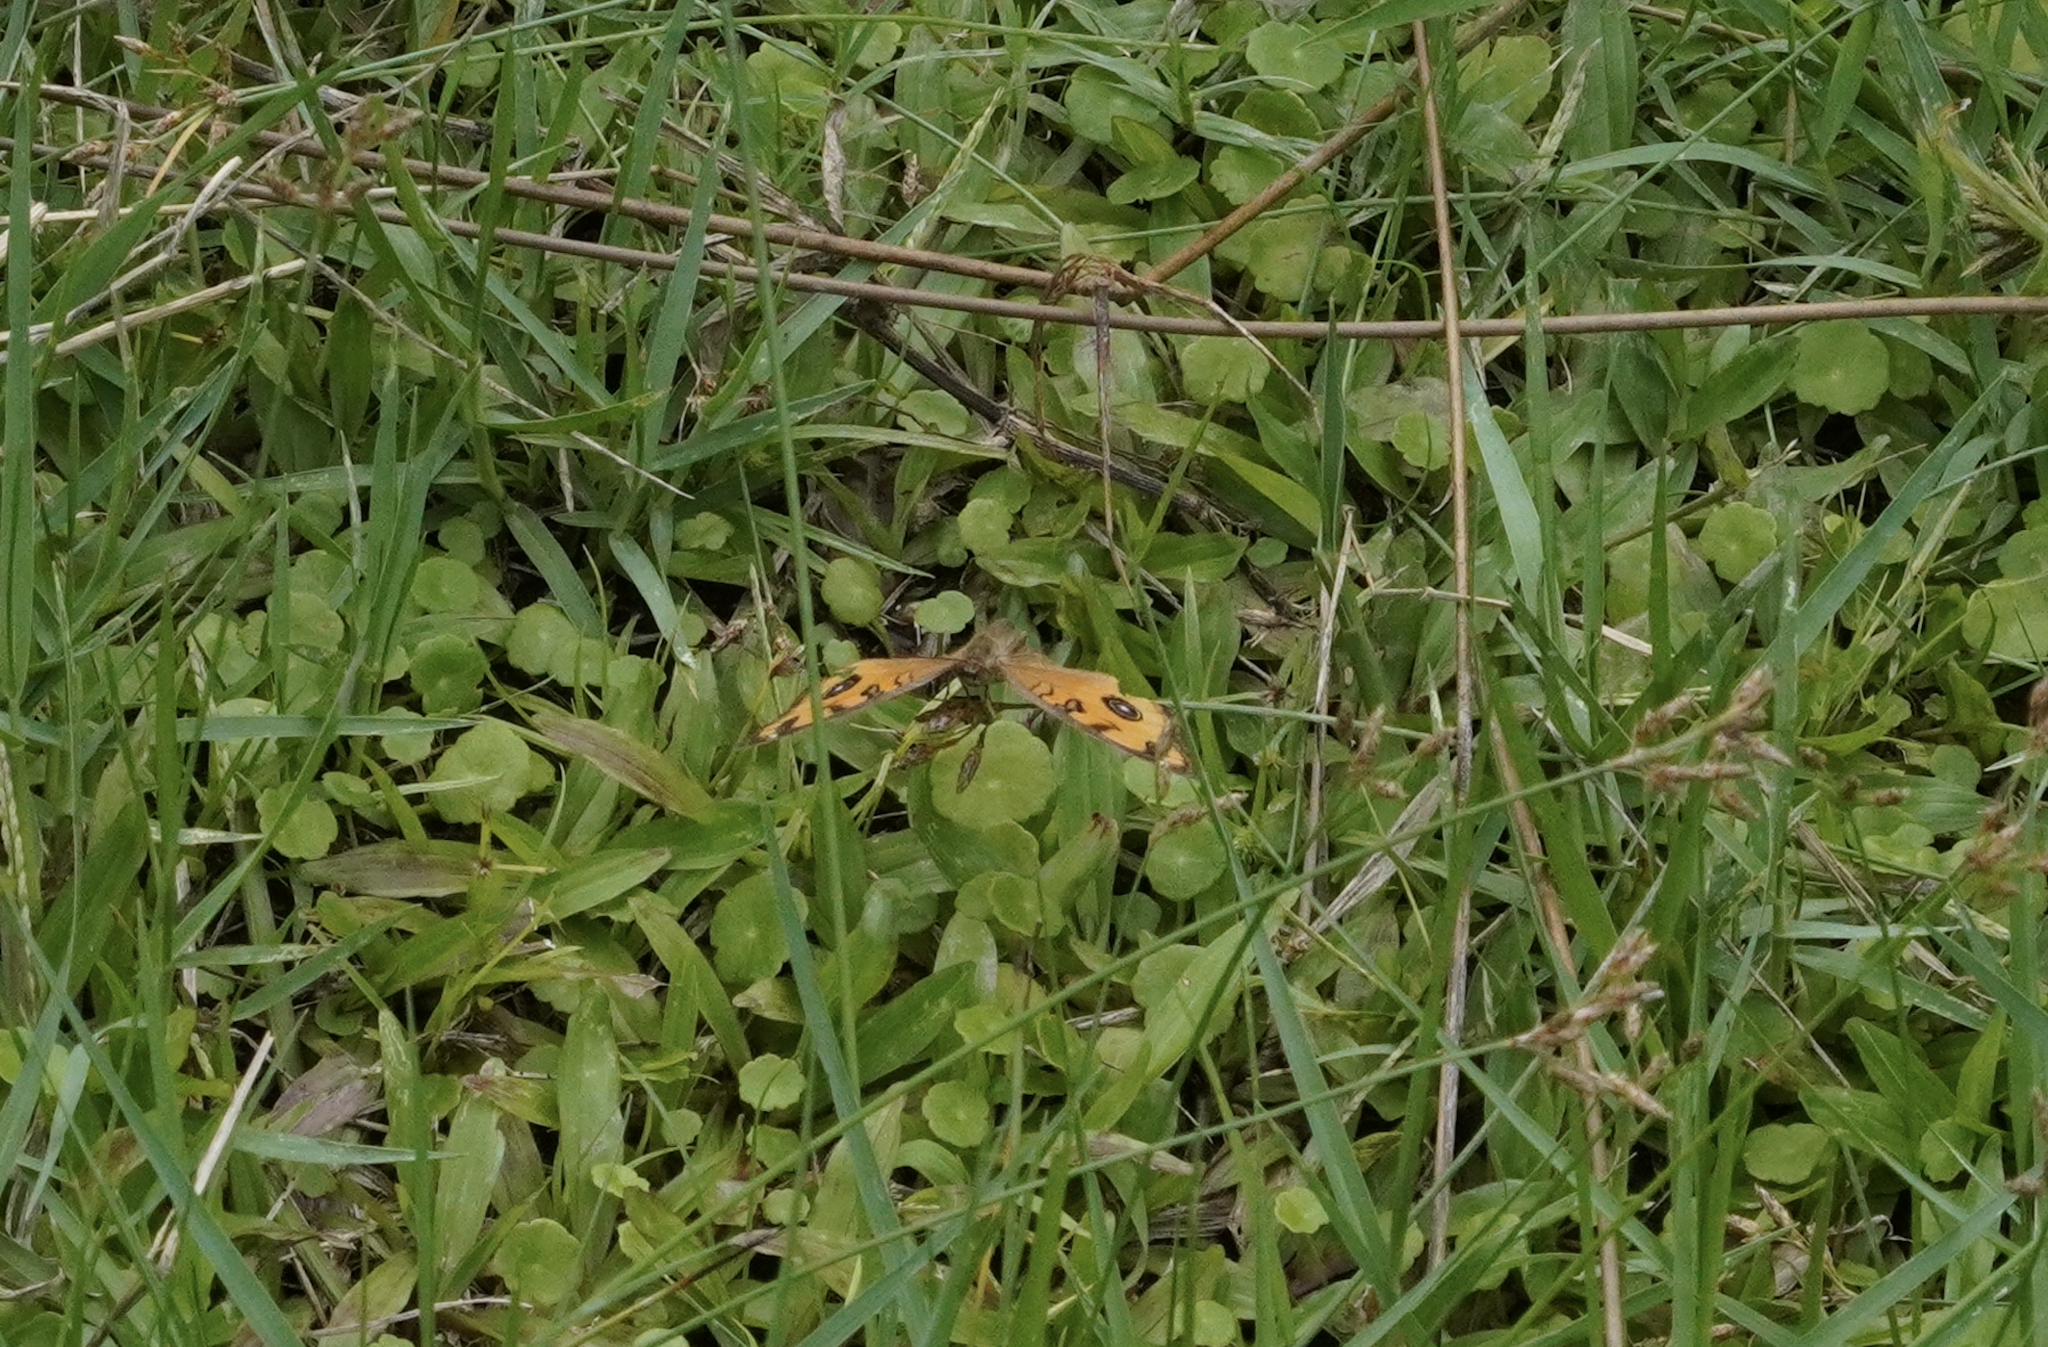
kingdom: Animalia
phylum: Arthropoda
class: Insecta
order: Lepidoptera
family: Nymphalidae
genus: Junonia
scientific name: Junonia almana
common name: Peacock pansy
